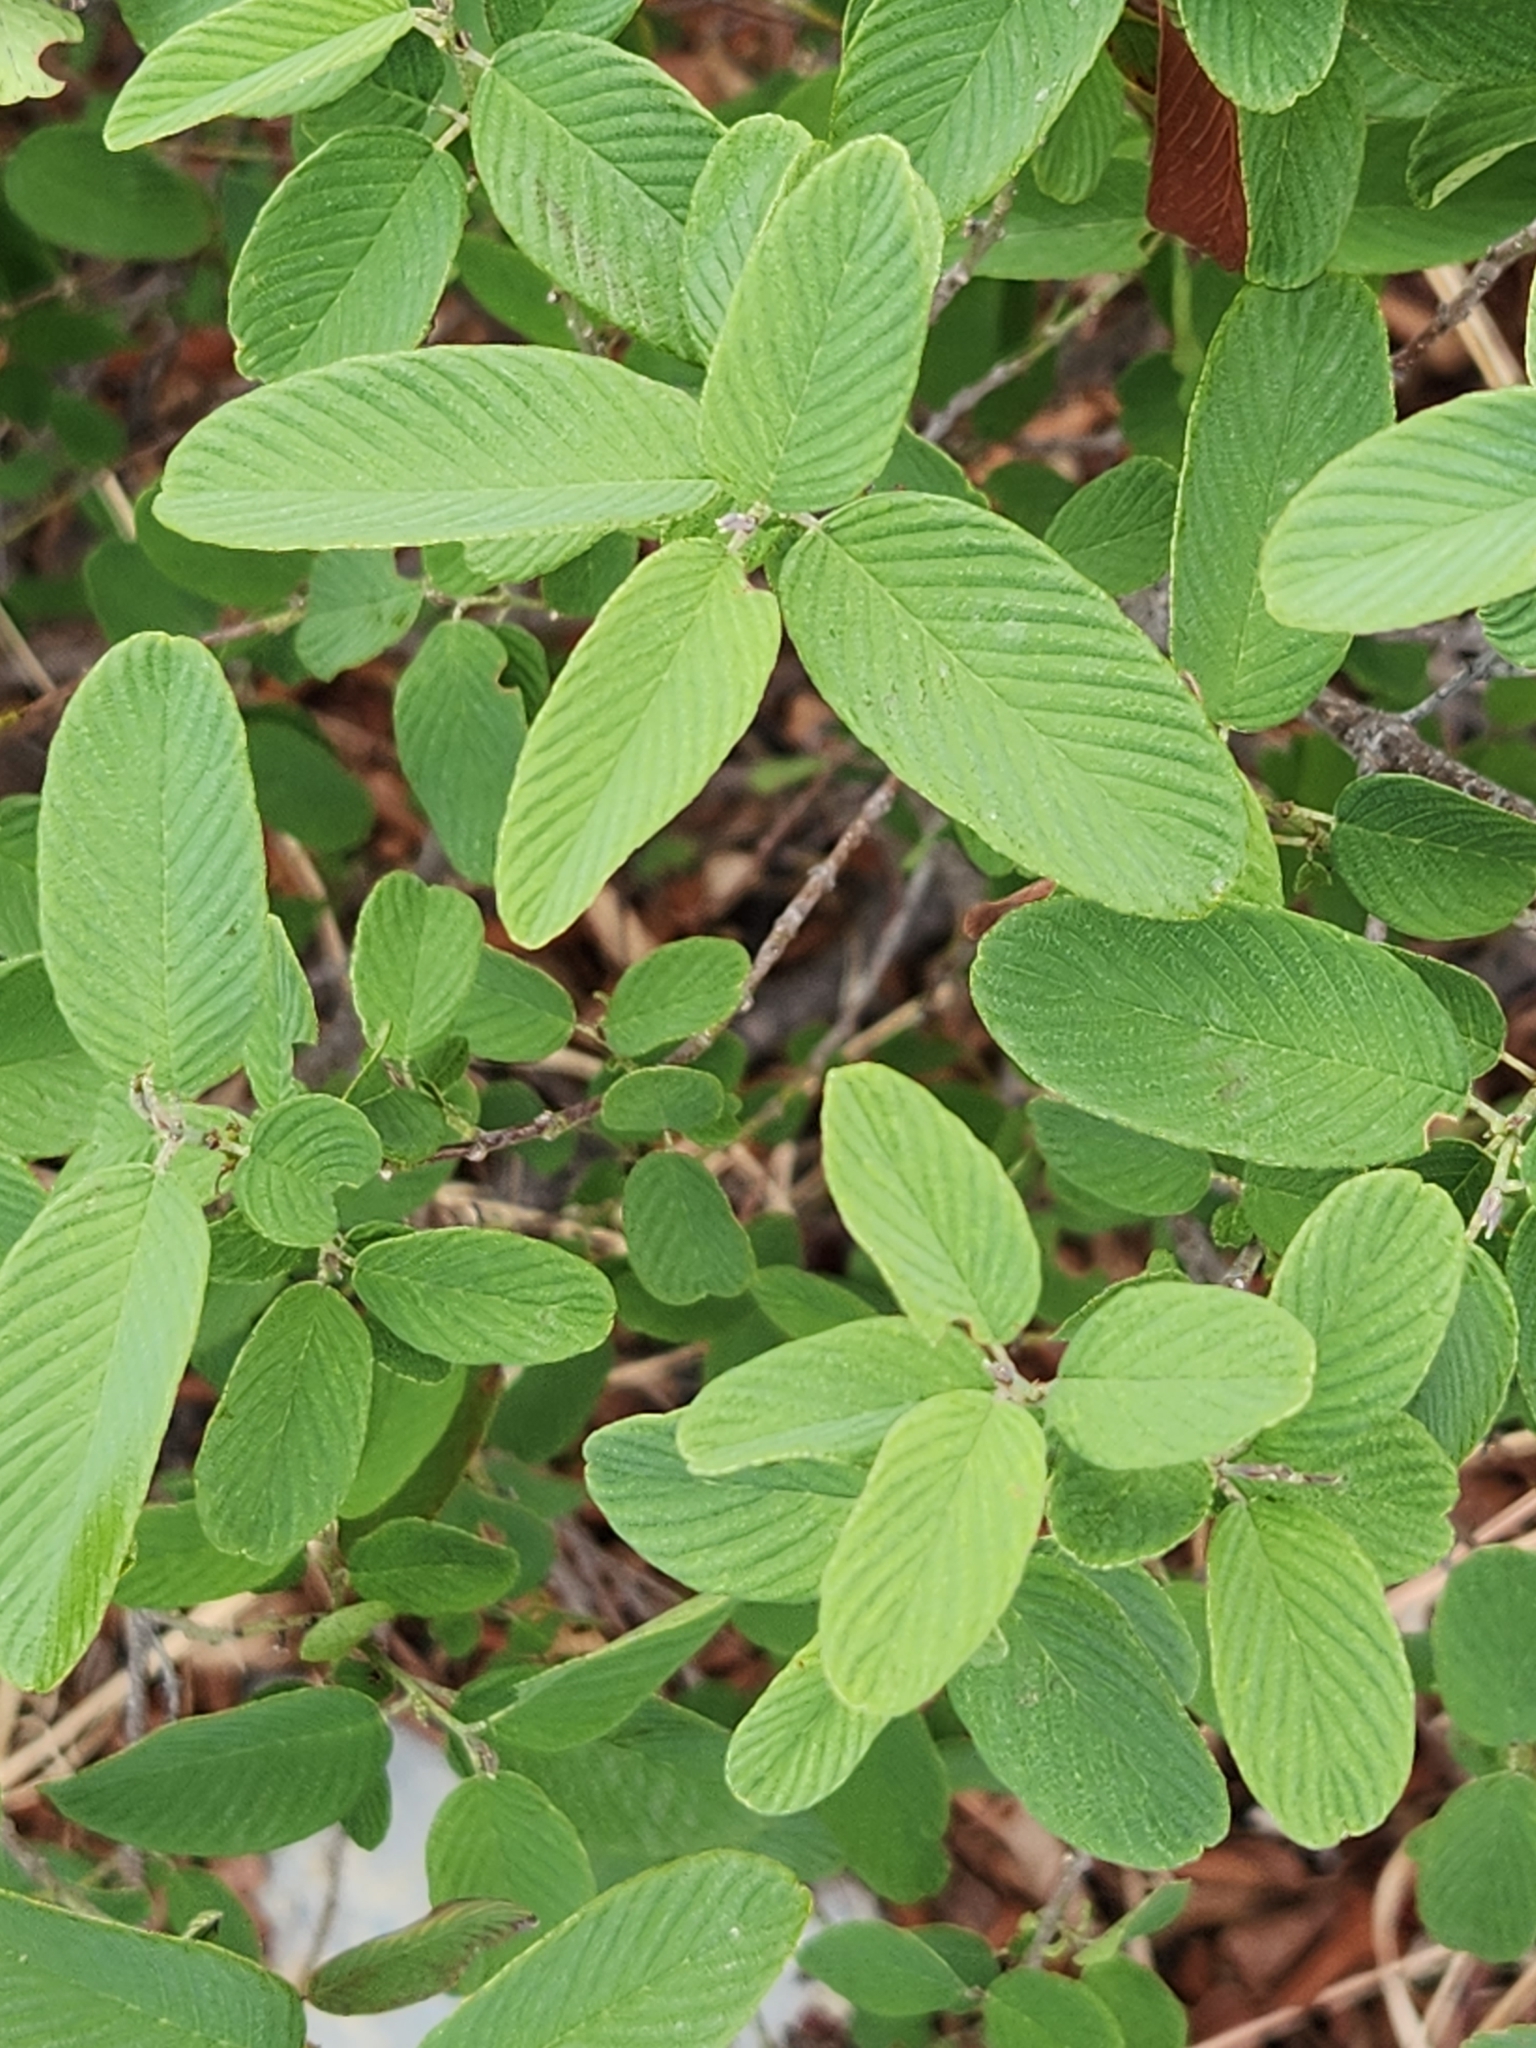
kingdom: Plantae
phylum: Tracheophyta
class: Magnoliopsida
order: Rosales
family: Rhamnaceae
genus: Karwinskia
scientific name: Karwinskia humboldtiana
